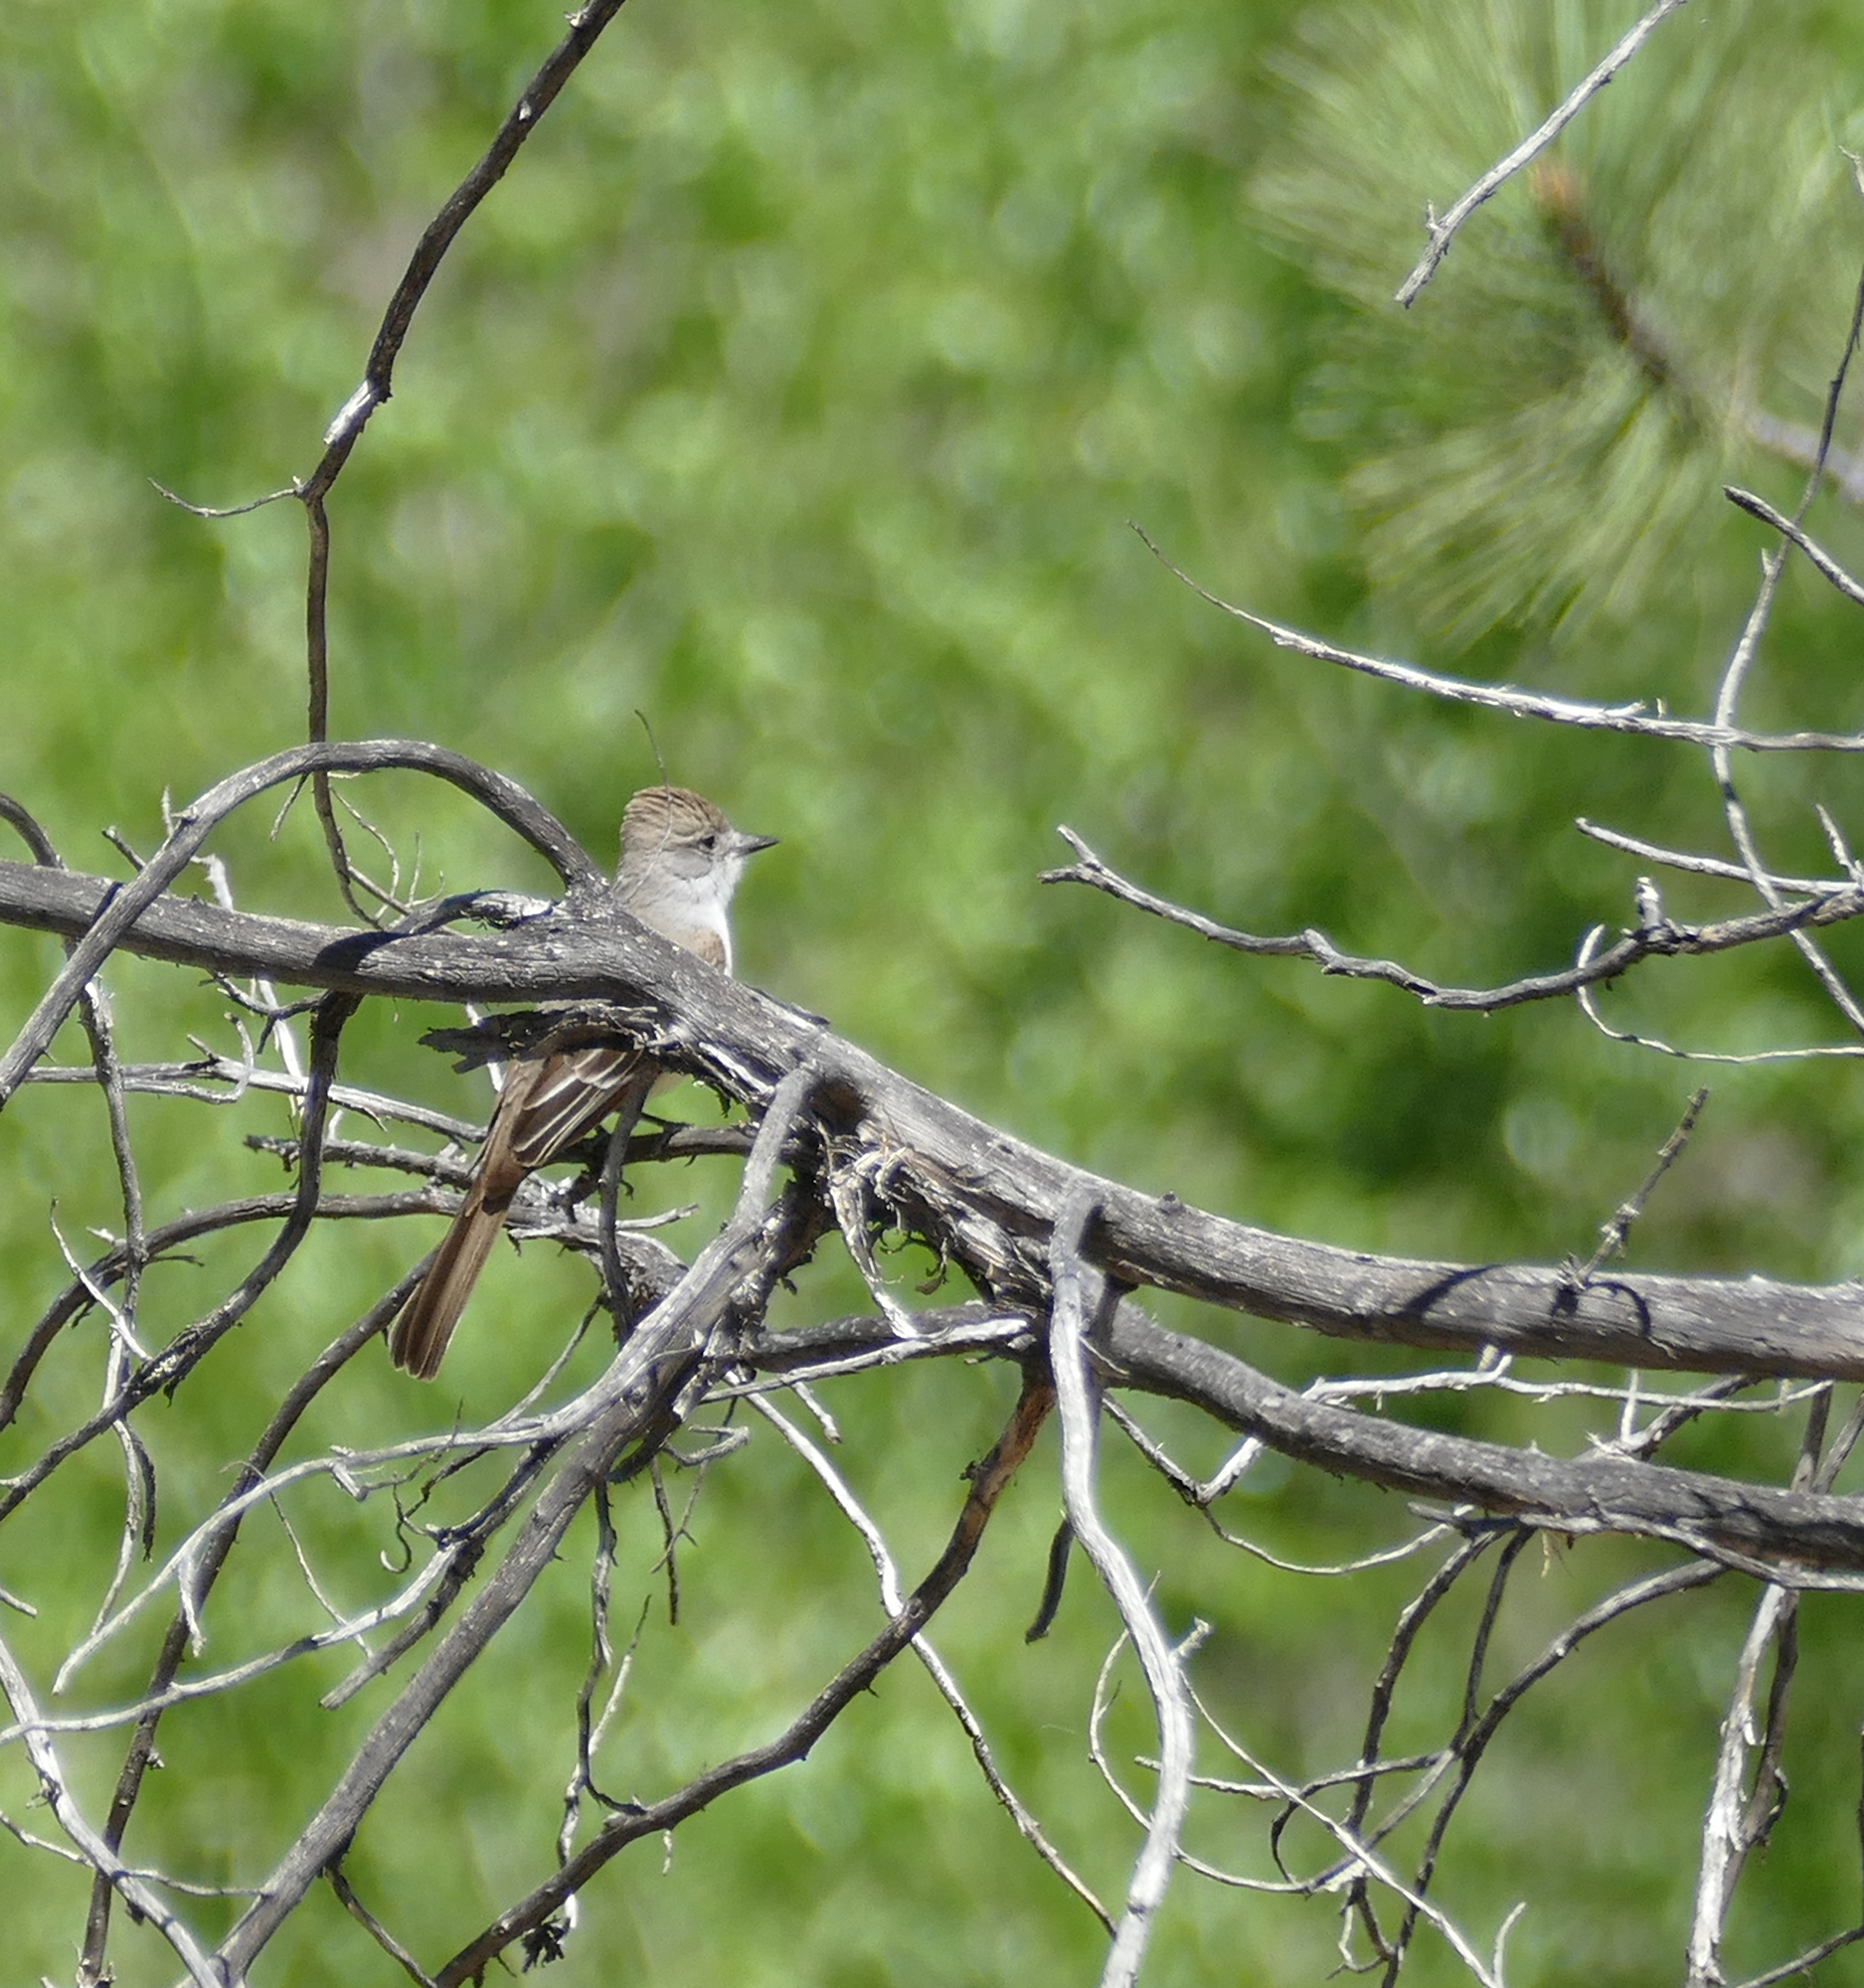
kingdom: Animalia
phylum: Chordata
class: Aves
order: Passeriformes
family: Tyrannidae
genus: Myiarchus
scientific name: Myiarchus cinerascens
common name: Ash-throated flycatcher
